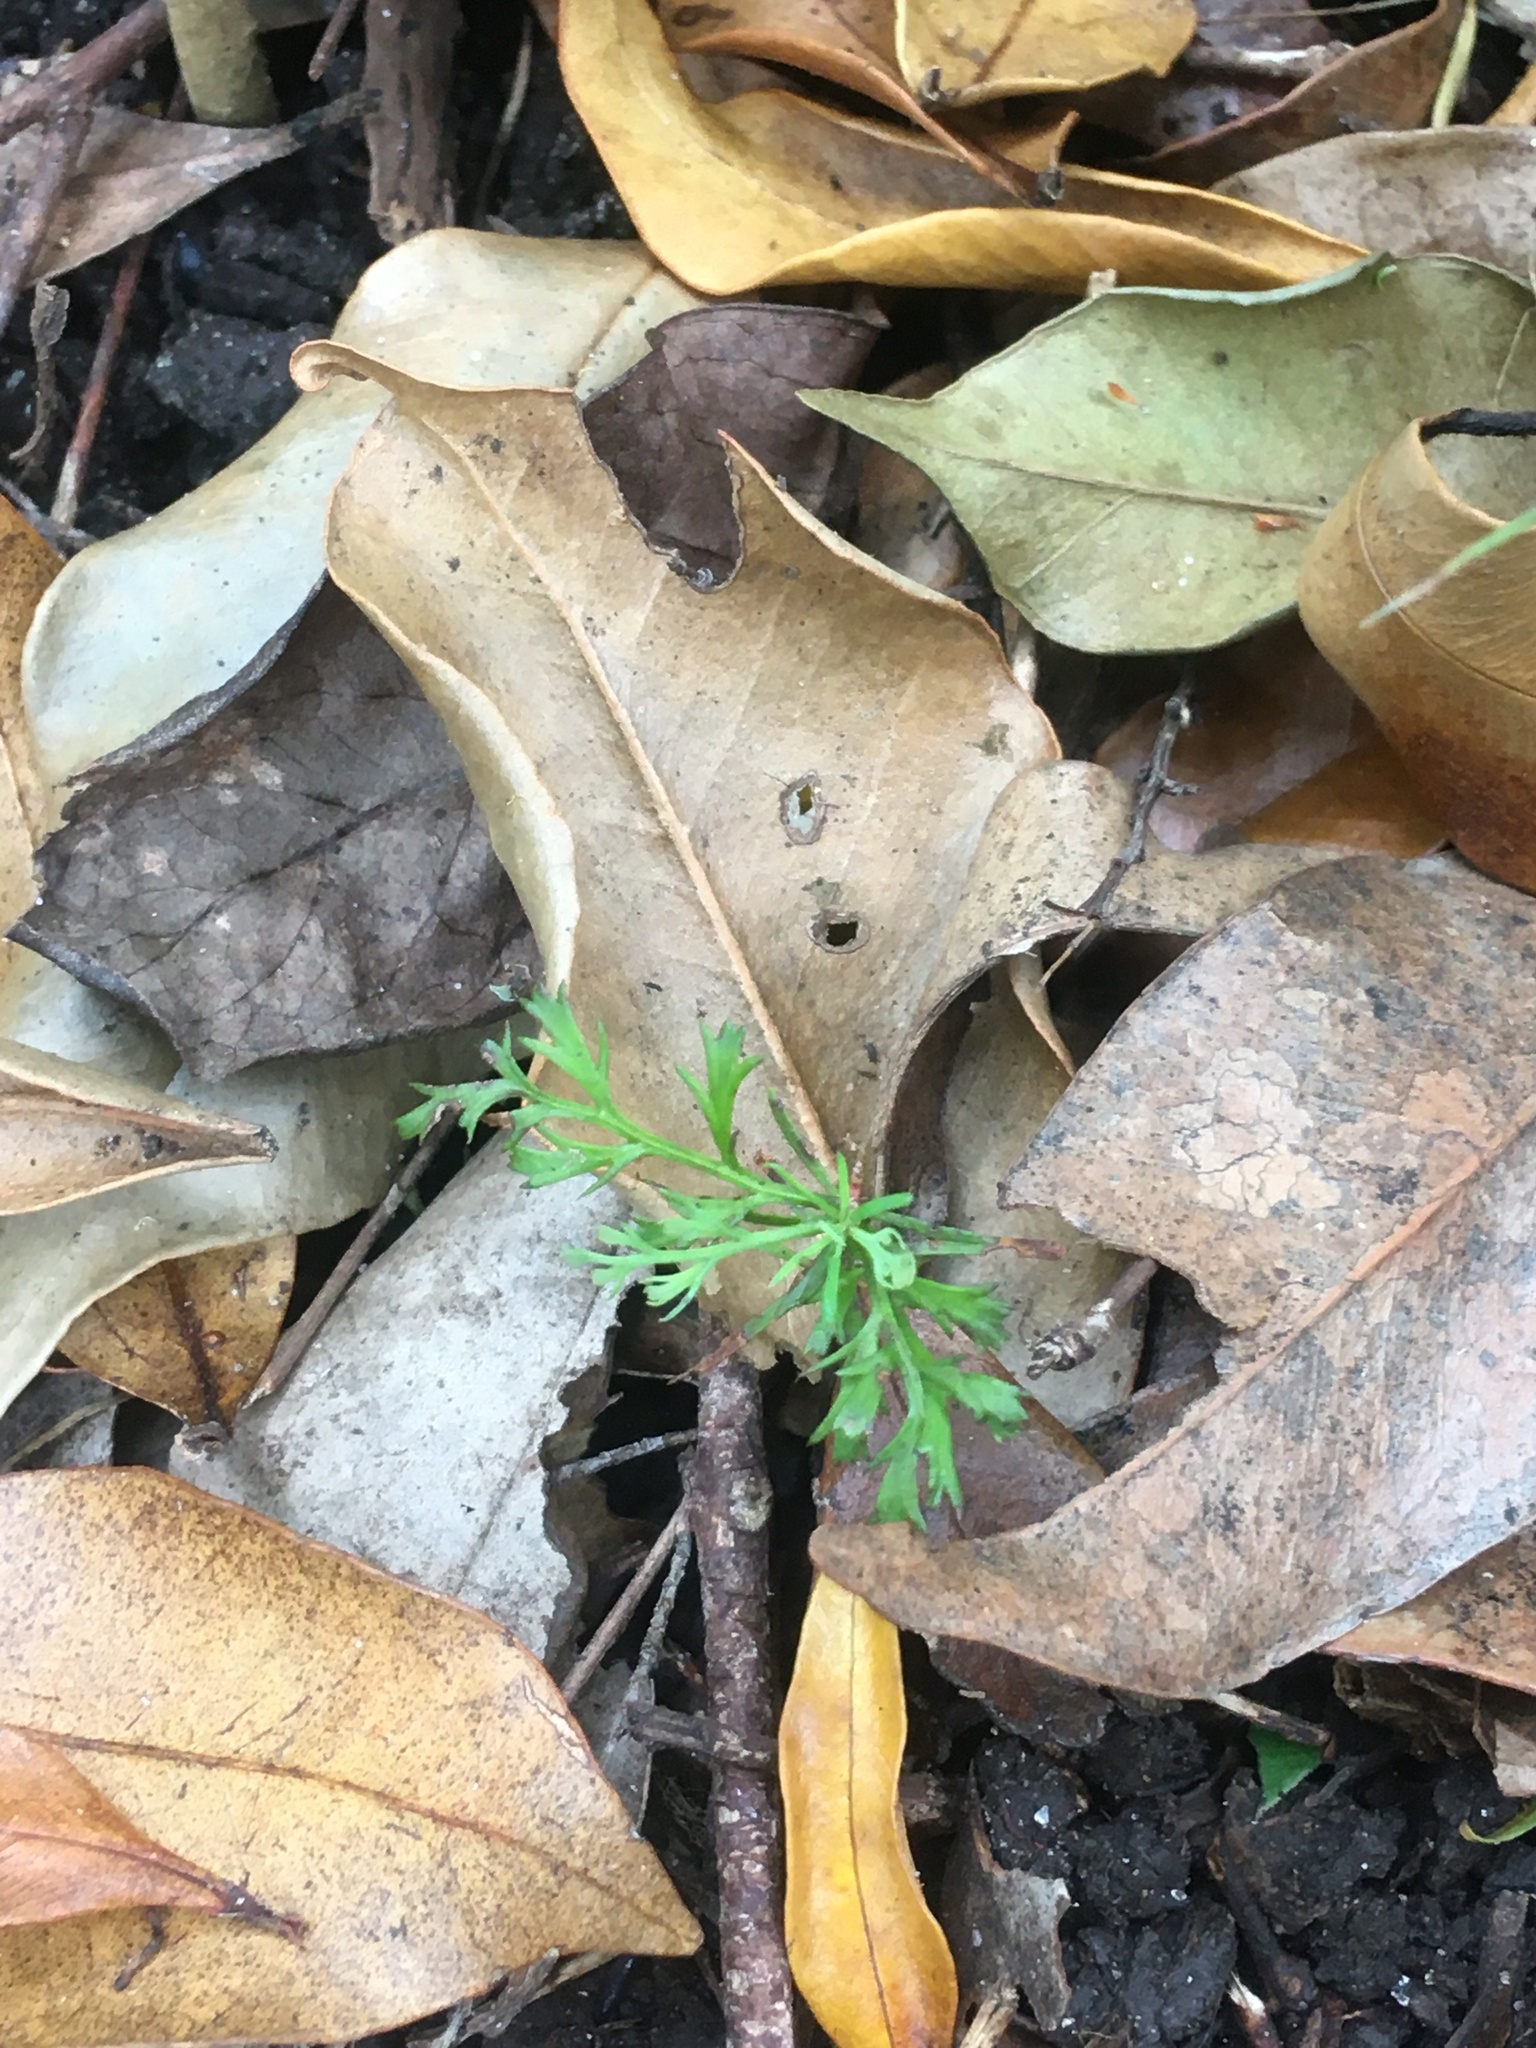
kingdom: Plantae
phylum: Tracheophyta
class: Pinopsida
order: Pinales
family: Phyllocladaceae
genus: Phyllocladus
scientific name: Phyllocladus trichomanoides
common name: Celery pine
